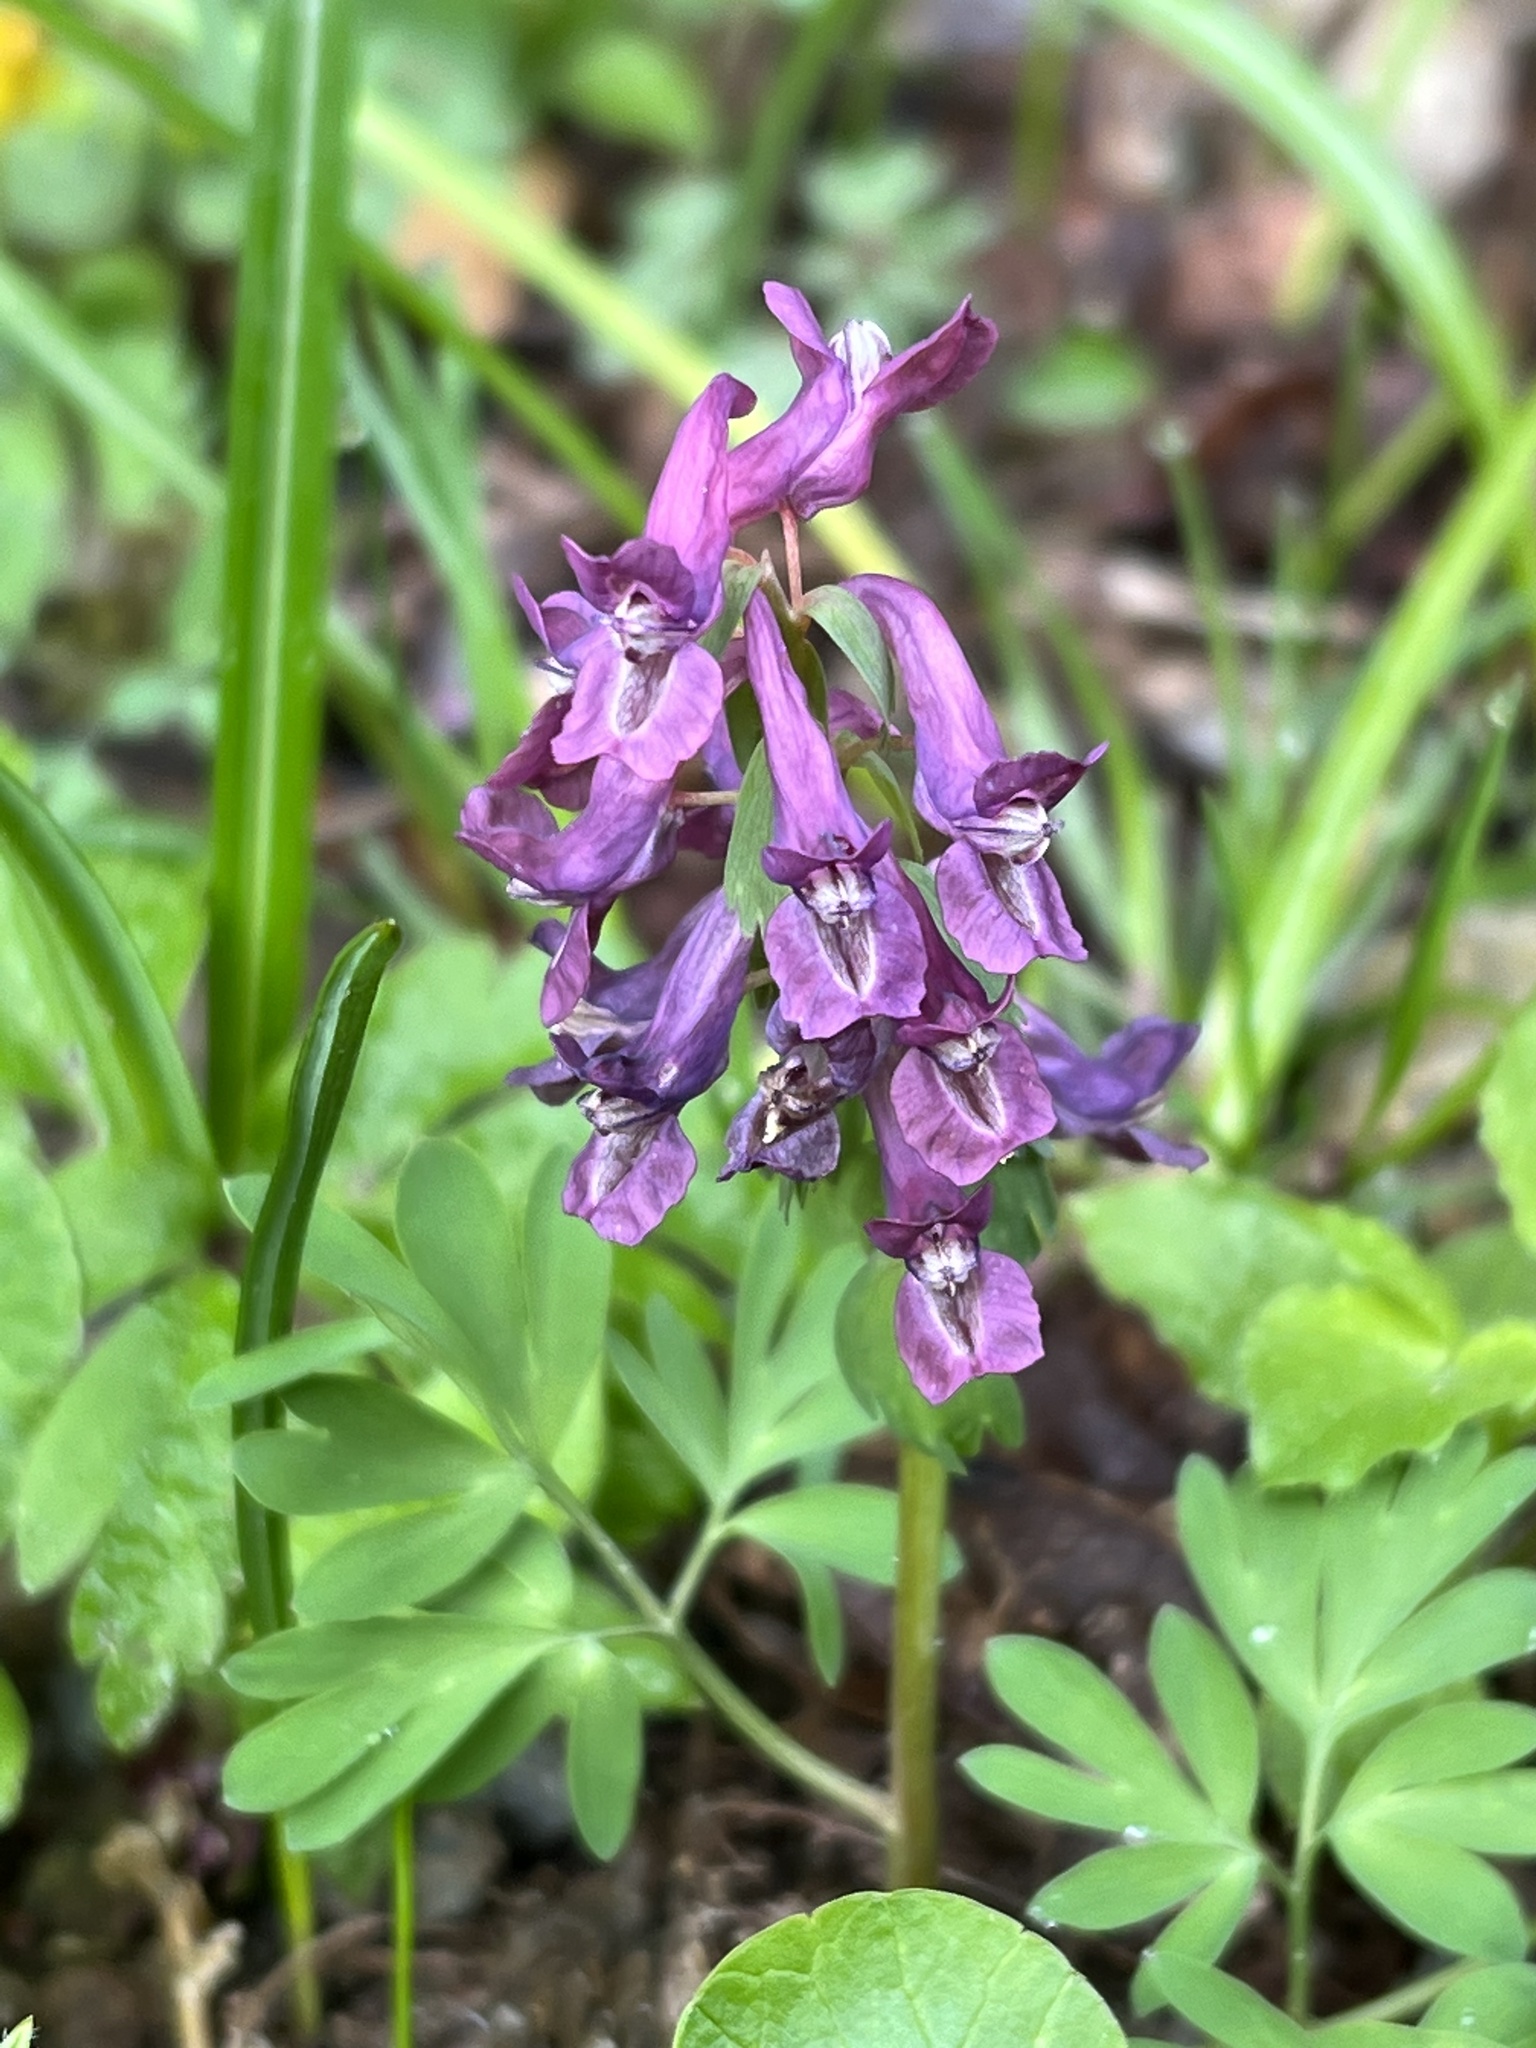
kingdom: Plantae
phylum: Tracheophyta
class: Magnoliopsida
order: Ranunculales
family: Papaveraceae
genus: Corydalis
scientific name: Corydalis solida
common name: Bird-in-a-bush
